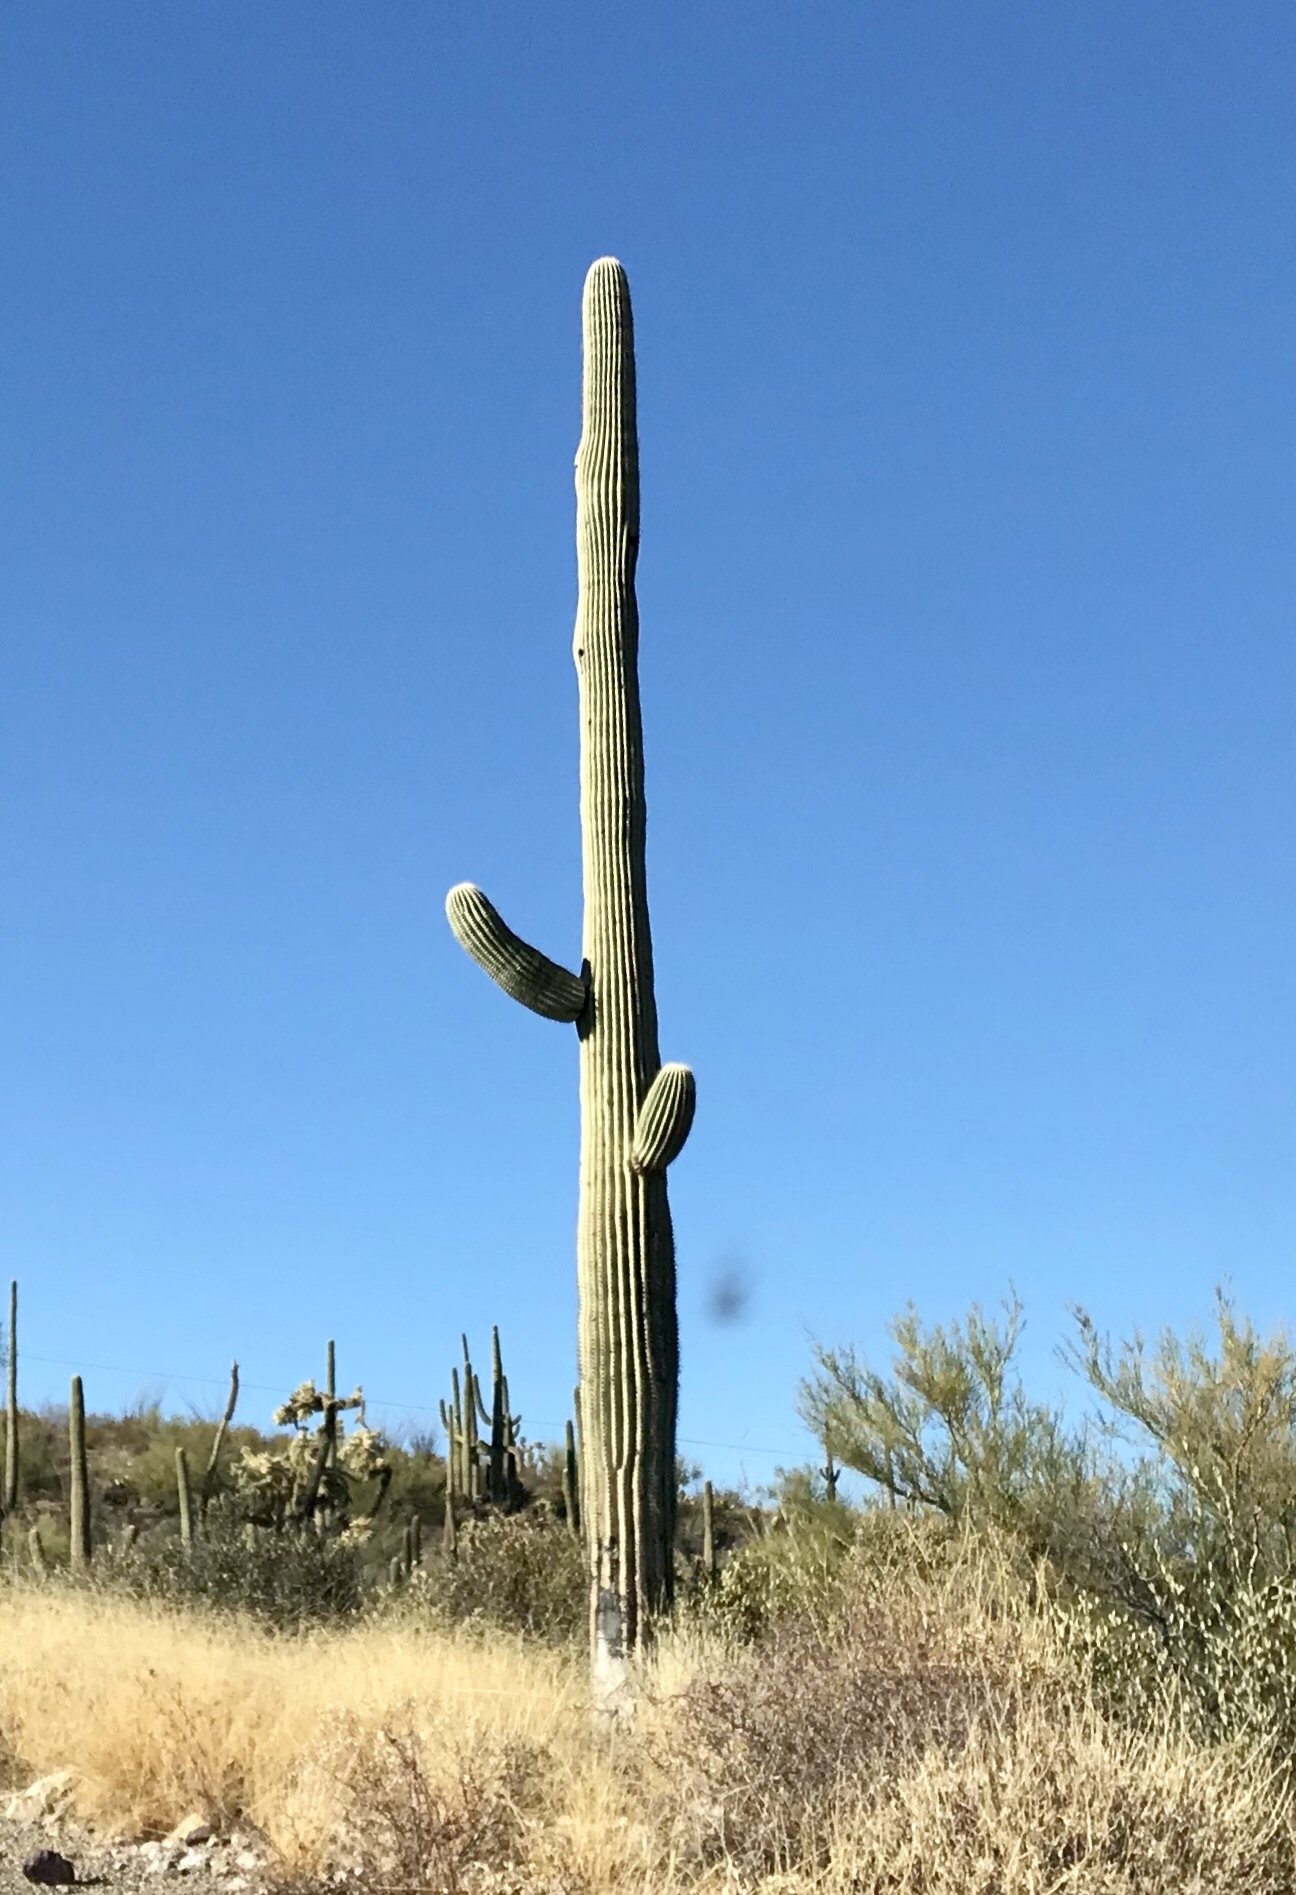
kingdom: Plantae
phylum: Tracheophyta
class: Magnoliopsida
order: Caryophyllales
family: Cactaceae
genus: Carnegiea
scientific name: Carnegiea gigantea
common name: Saguaro
